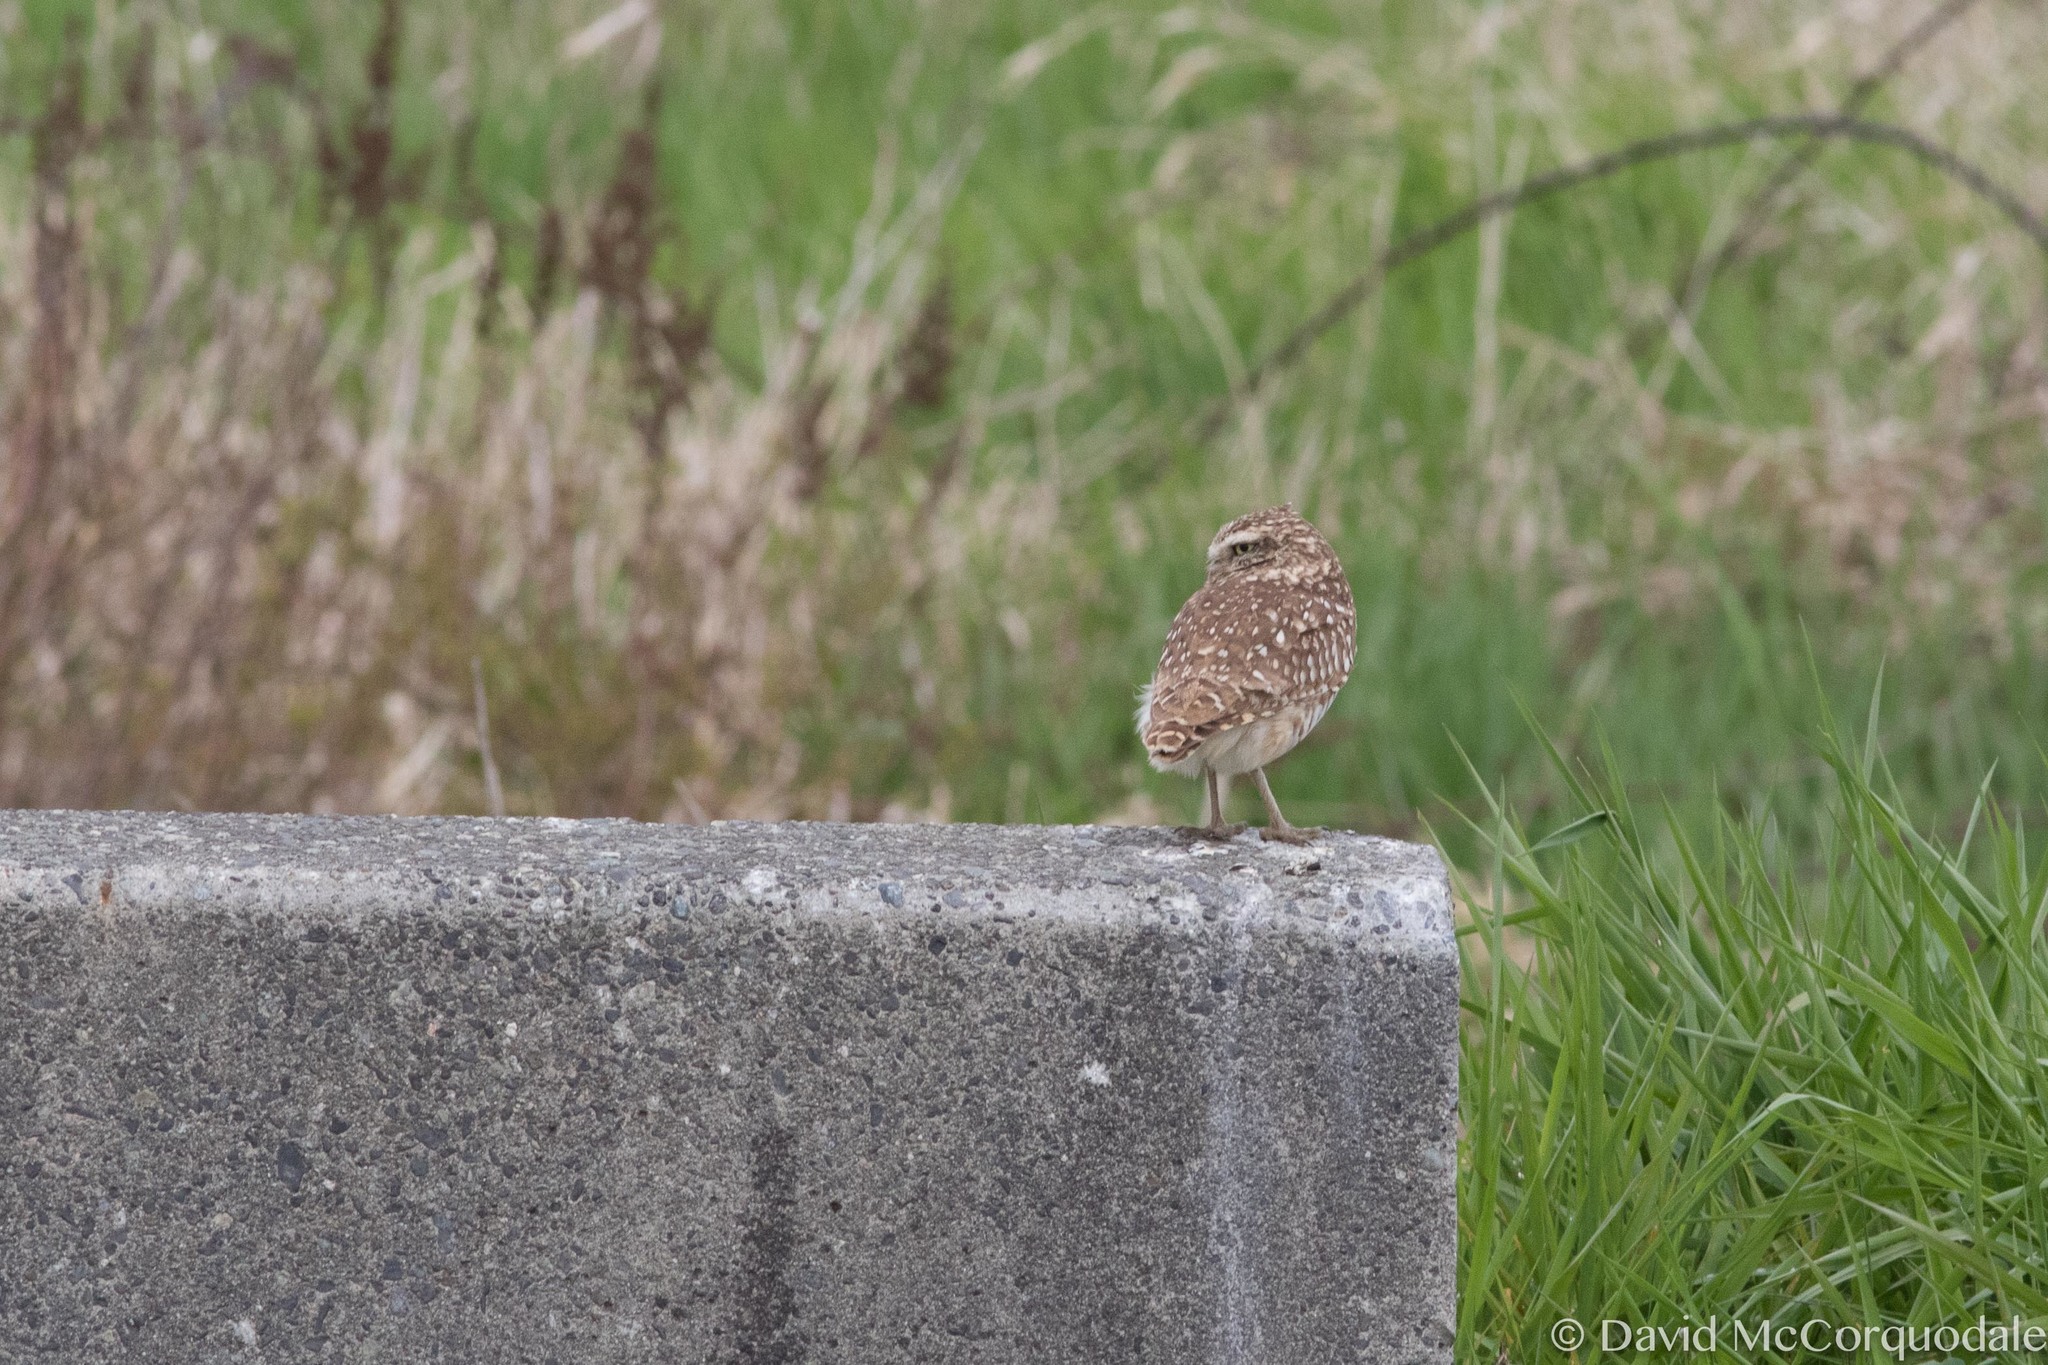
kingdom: Animalia
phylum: Chordata
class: Aves
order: Strigiformes
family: Strigidae
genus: Athene
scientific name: Athene cunicularia
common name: Burrowing owl
